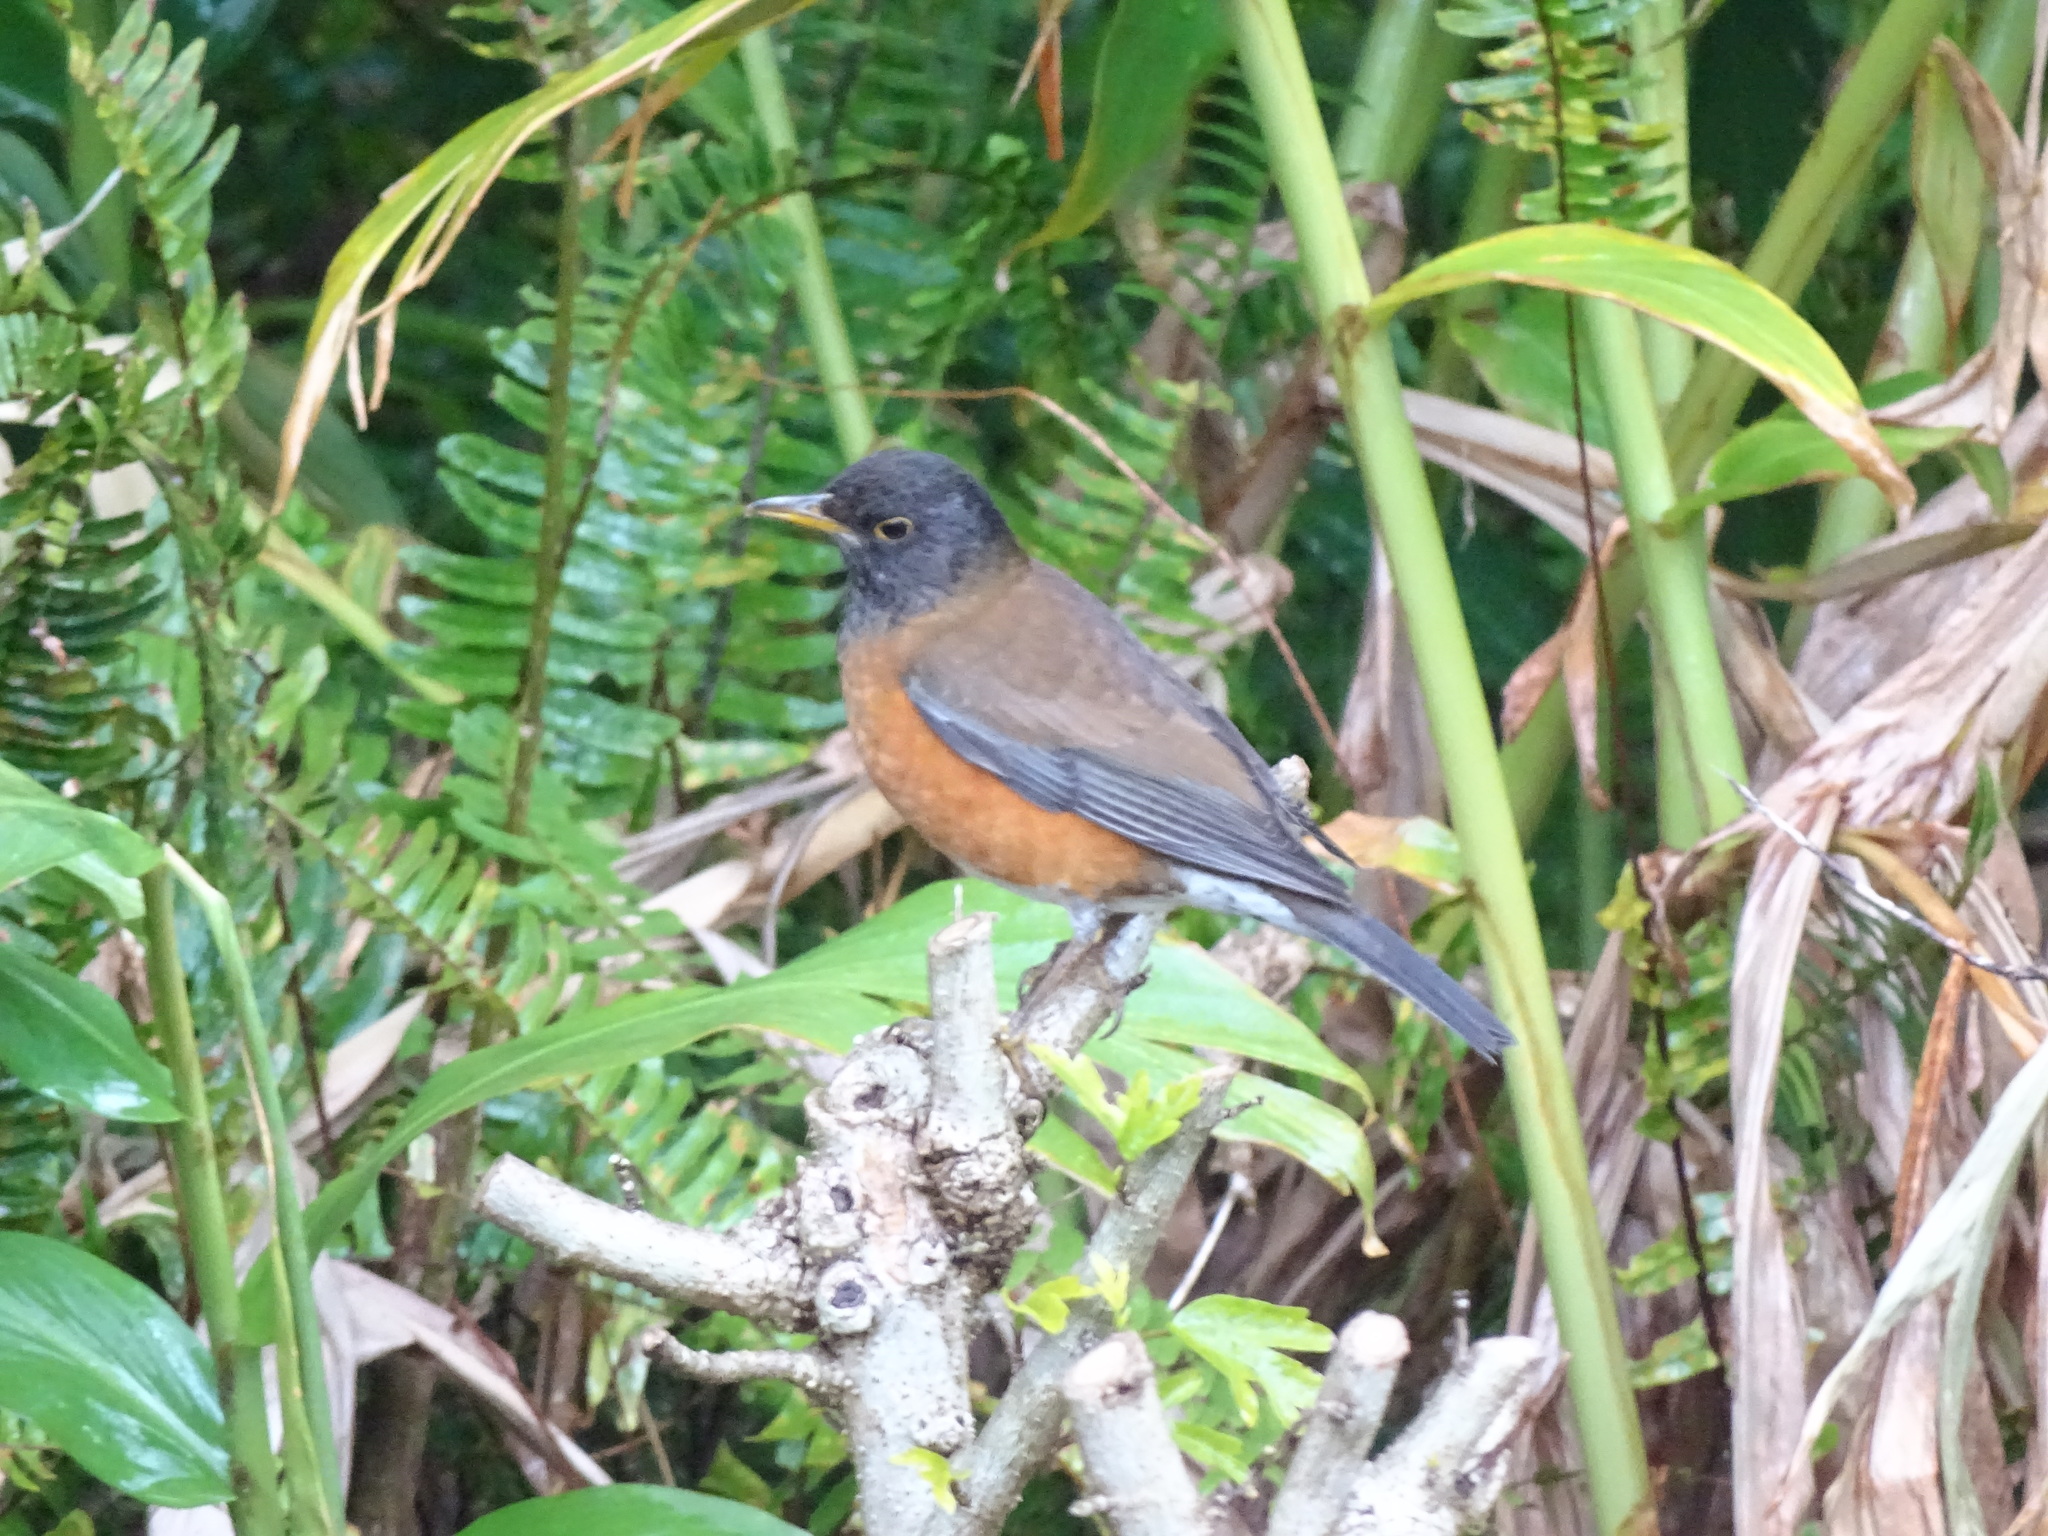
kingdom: Animalia
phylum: Chordata
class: Aves
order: Passeriformes
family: Turdidae
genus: Turdus
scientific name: Turdus celaenops
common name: Izu thrush
